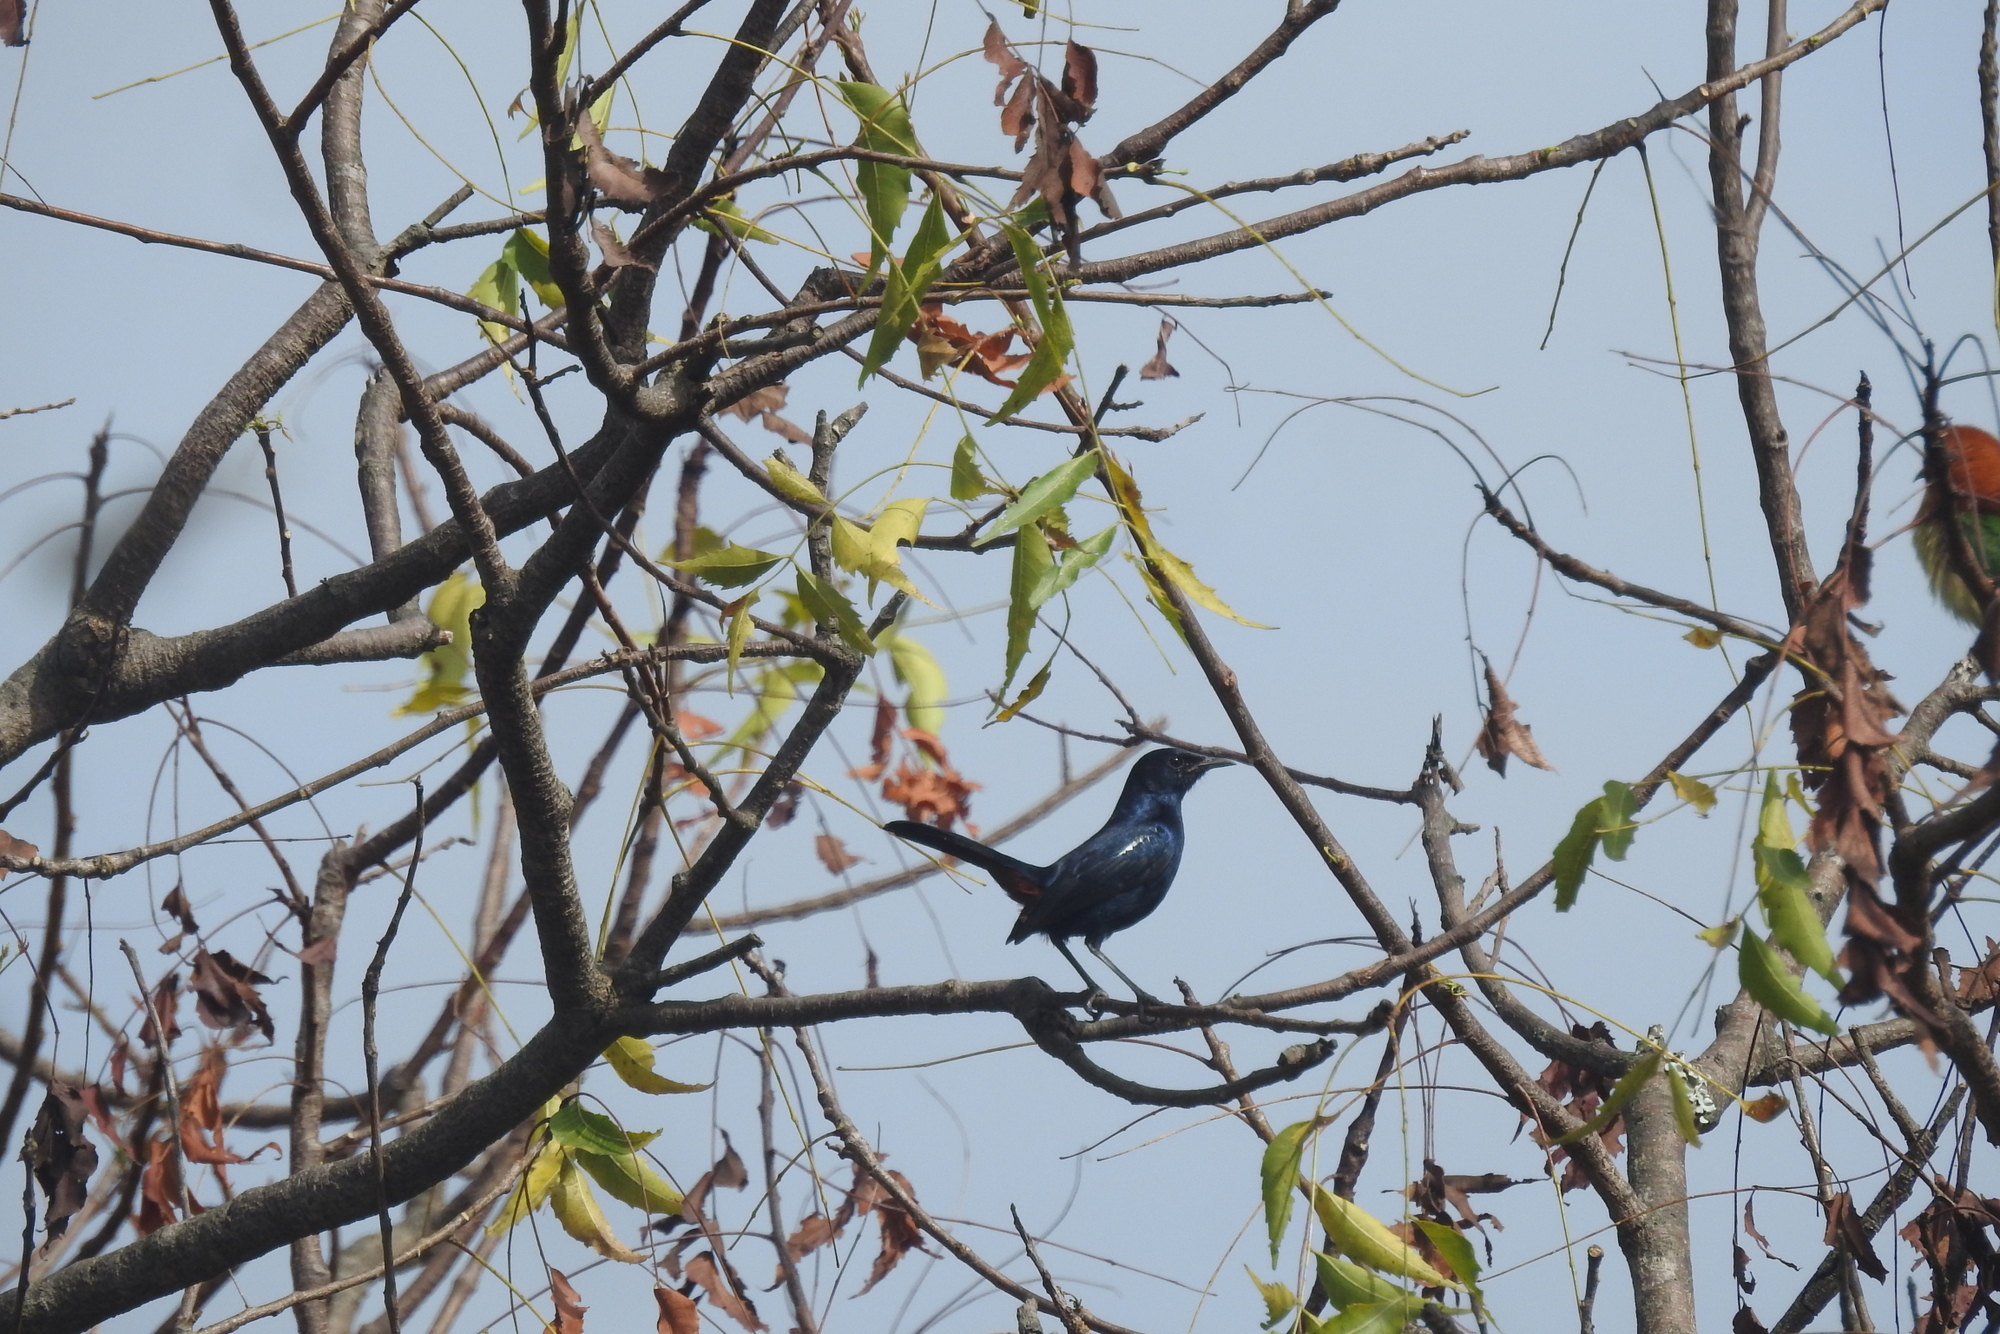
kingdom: Animalia
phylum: Chordata
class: Aves
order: Passeriformes
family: Muscicapidae
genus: Saxicoloides
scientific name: Saxicoloides fulicatus
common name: Indian robin
